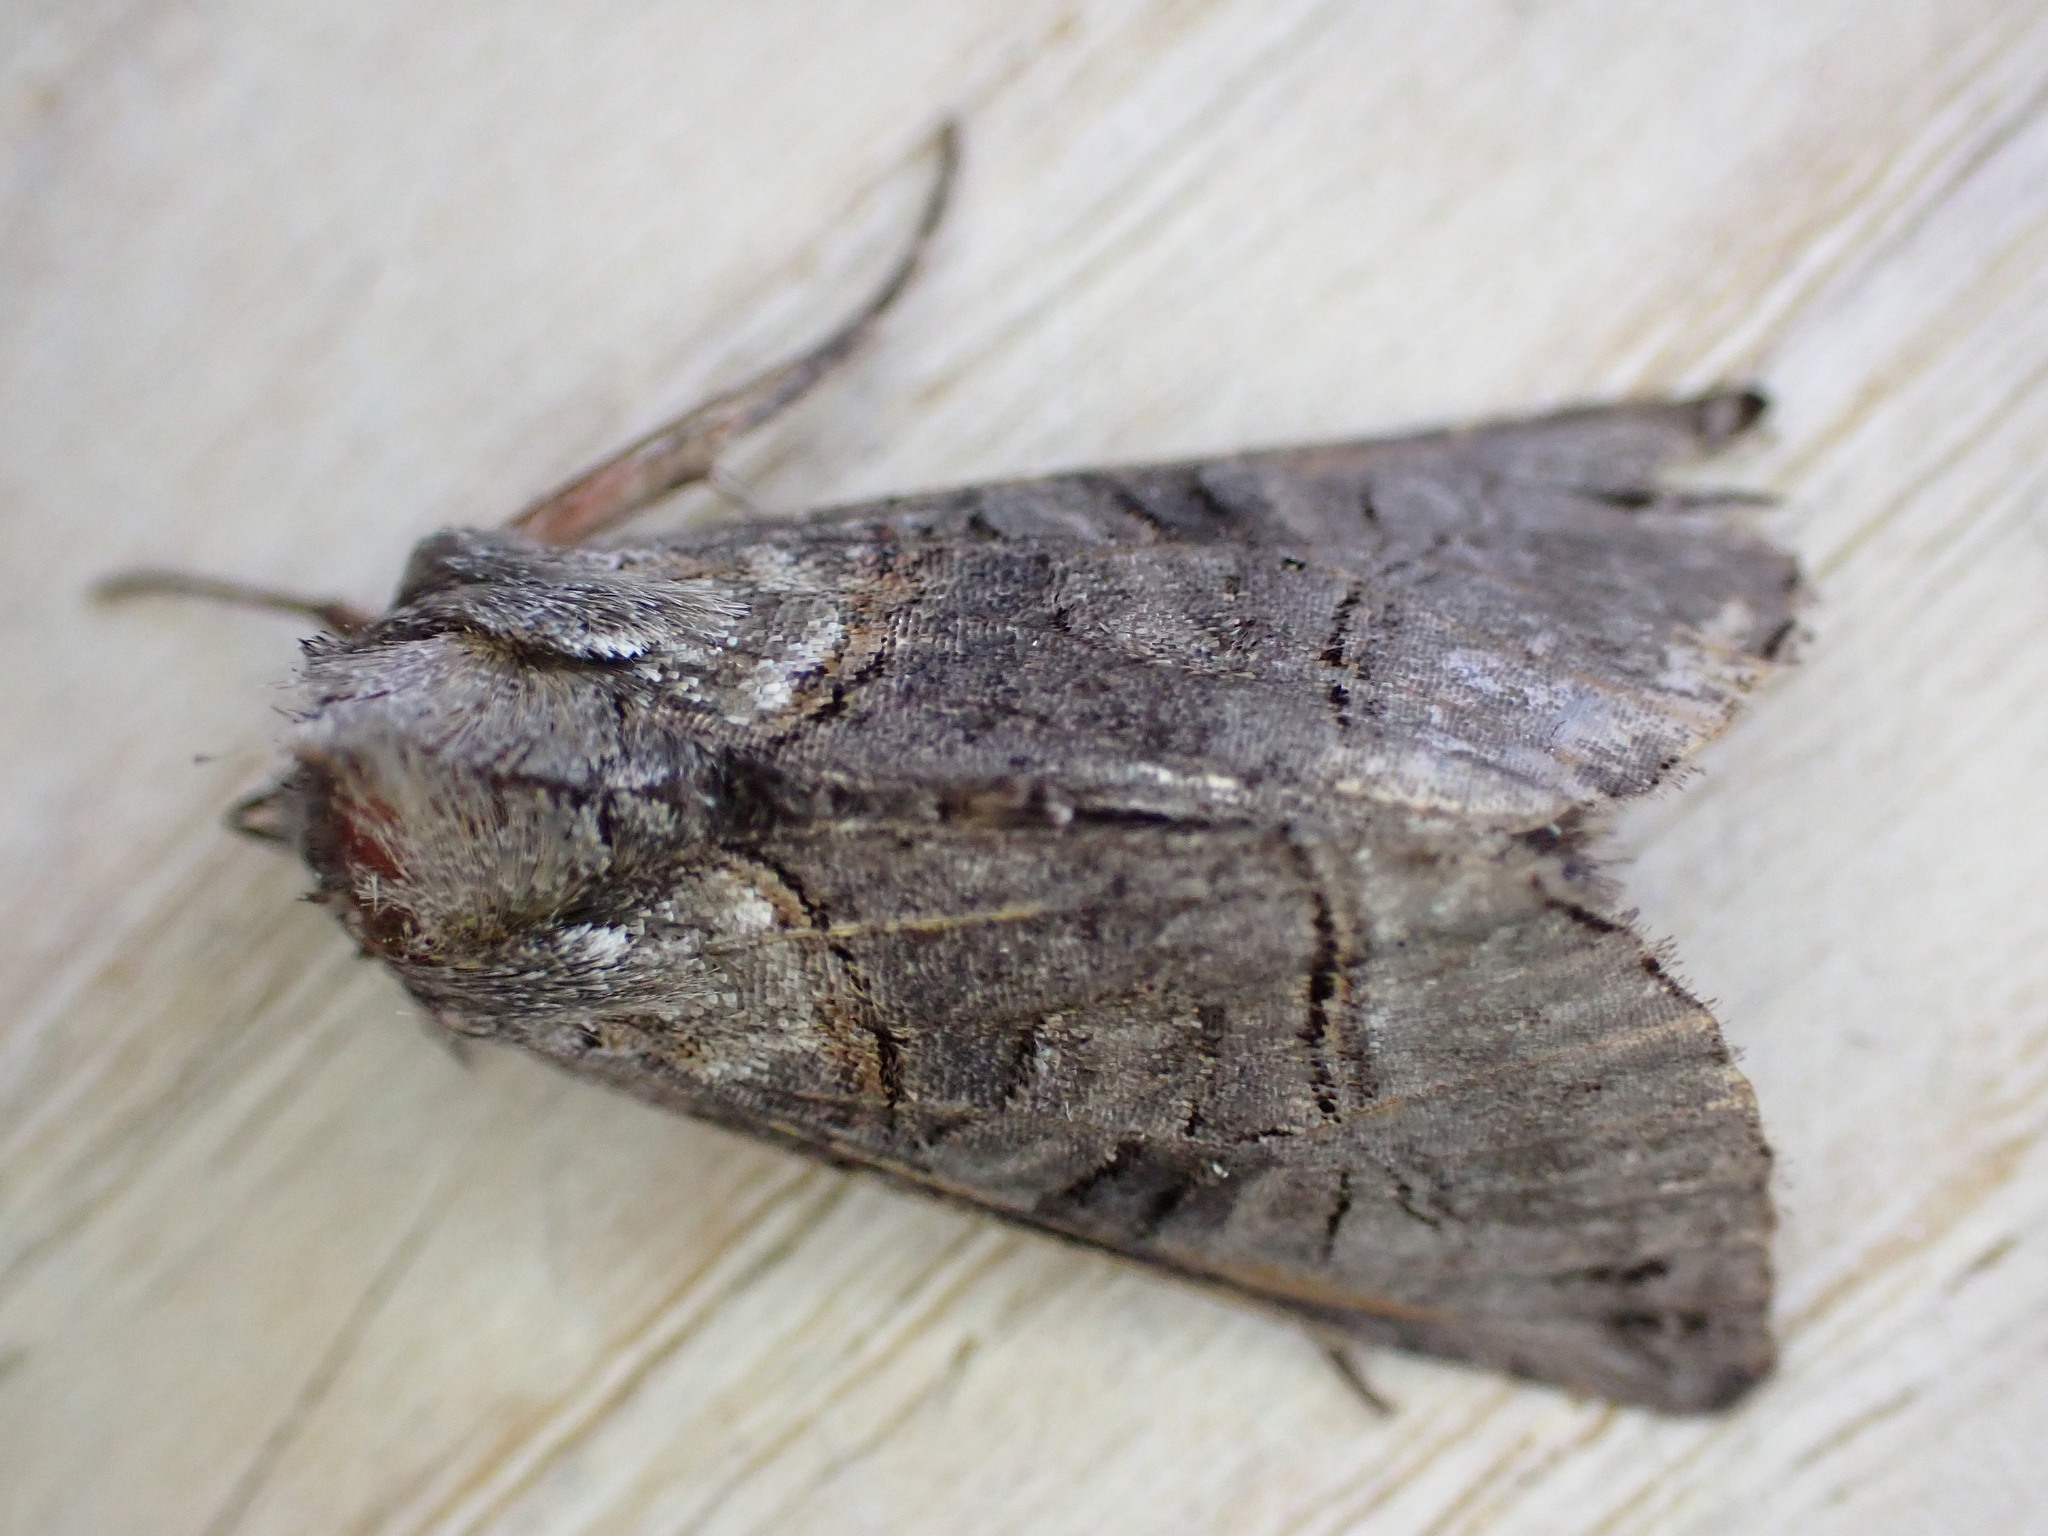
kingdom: Animalia
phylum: Arthropoda
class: Insecta
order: Lepidoptera
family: Noctuidae
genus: Abrostola
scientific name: Abrostola tripartita
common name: Spectacle
